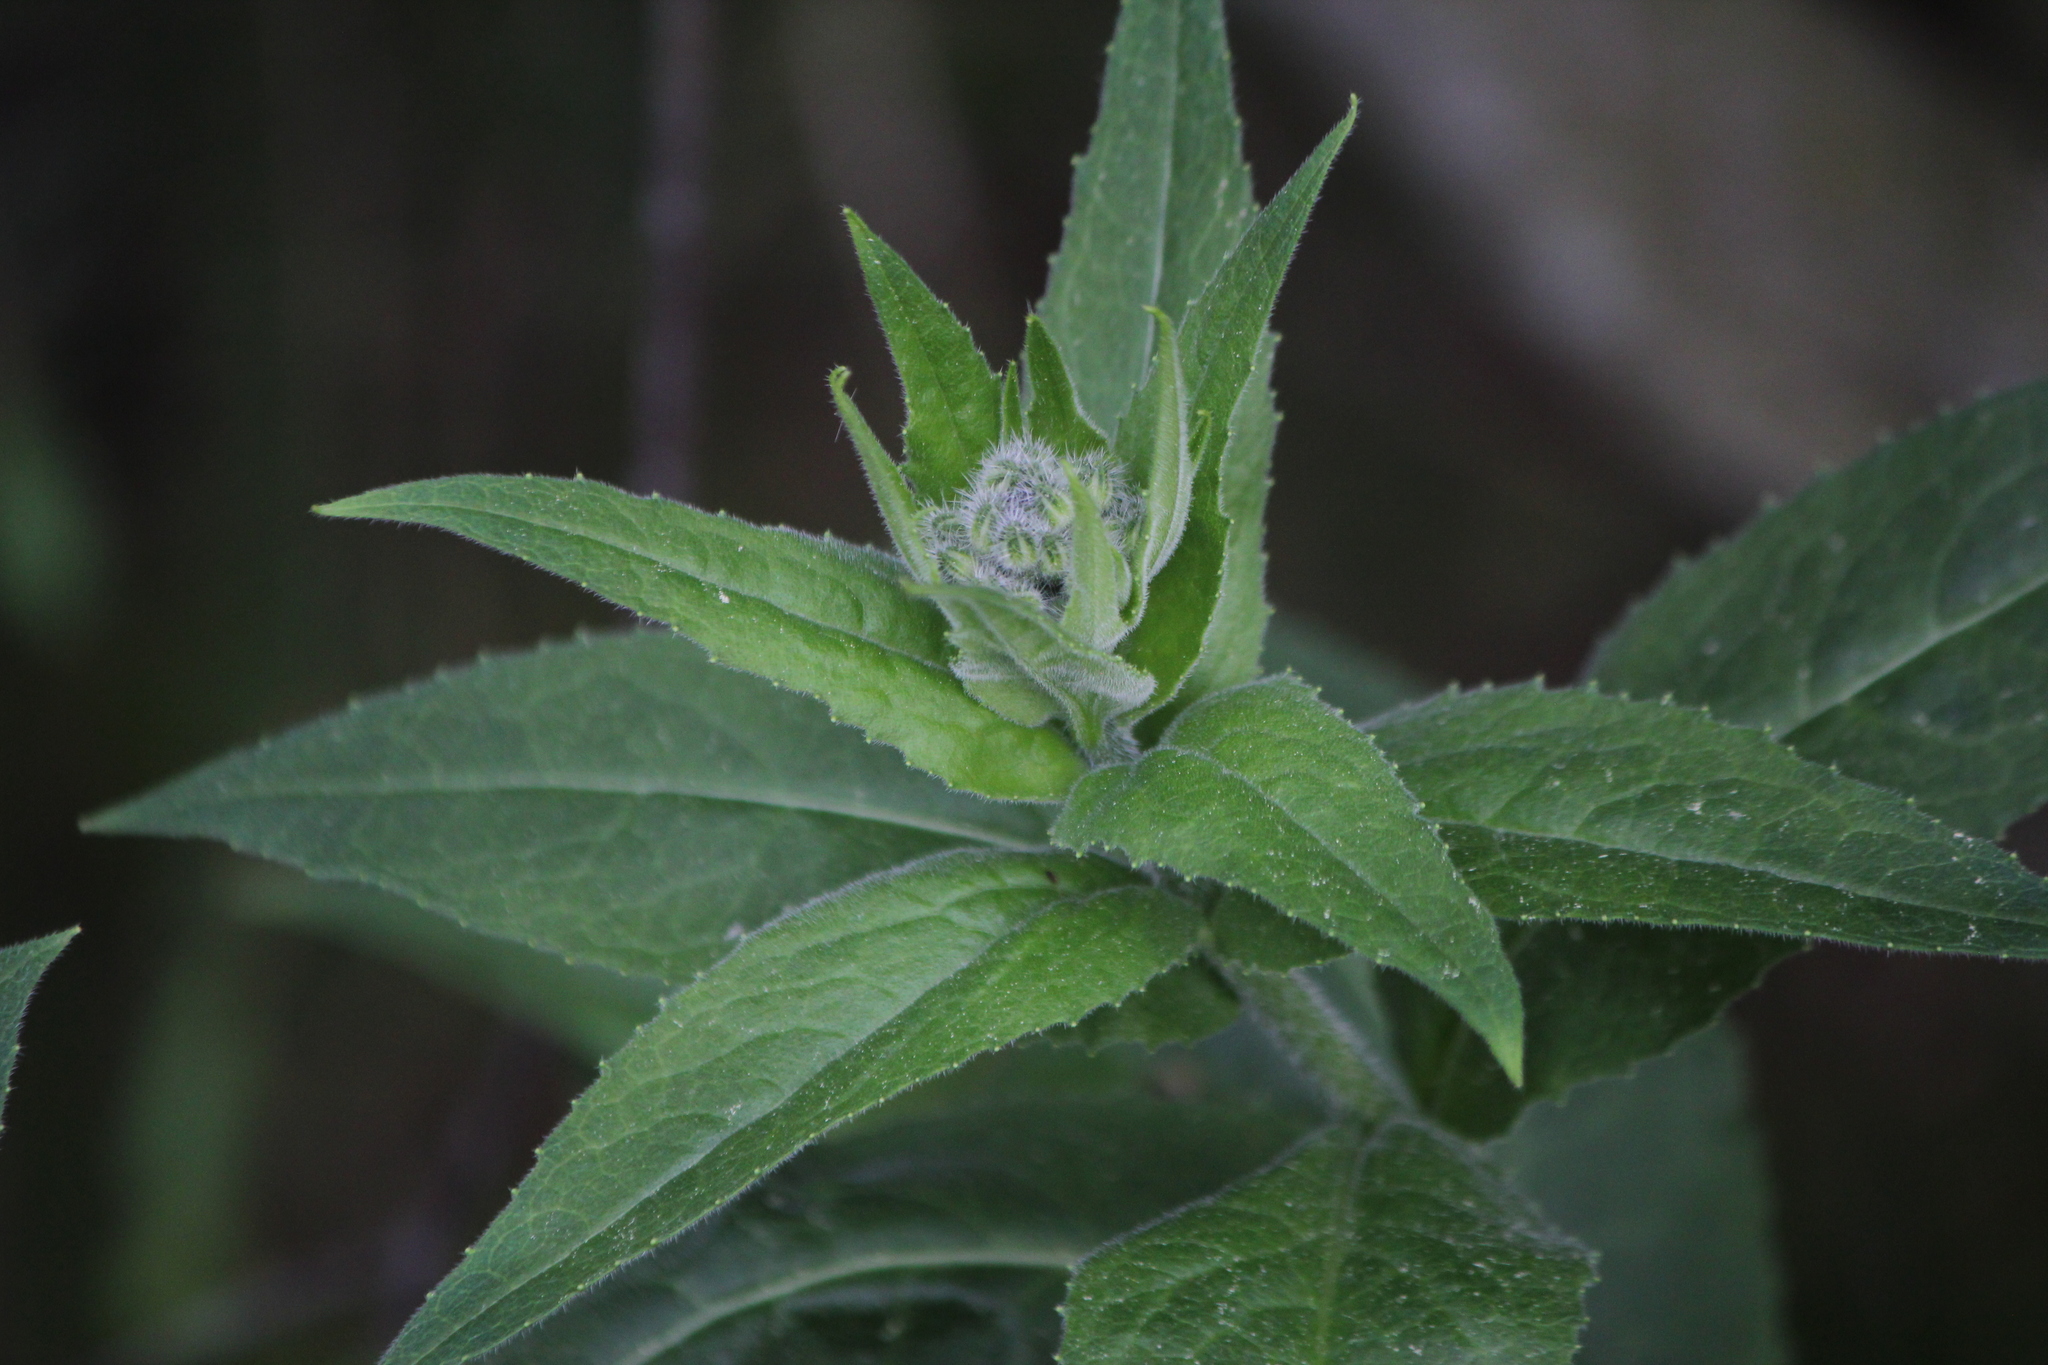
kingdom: Plantae
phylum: Tracheophyta
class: Magnoliopsida
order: Brassicales
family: Brassicaceae
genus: Hesperis
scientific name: Hesperis matronalis
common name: Dame's-violet
